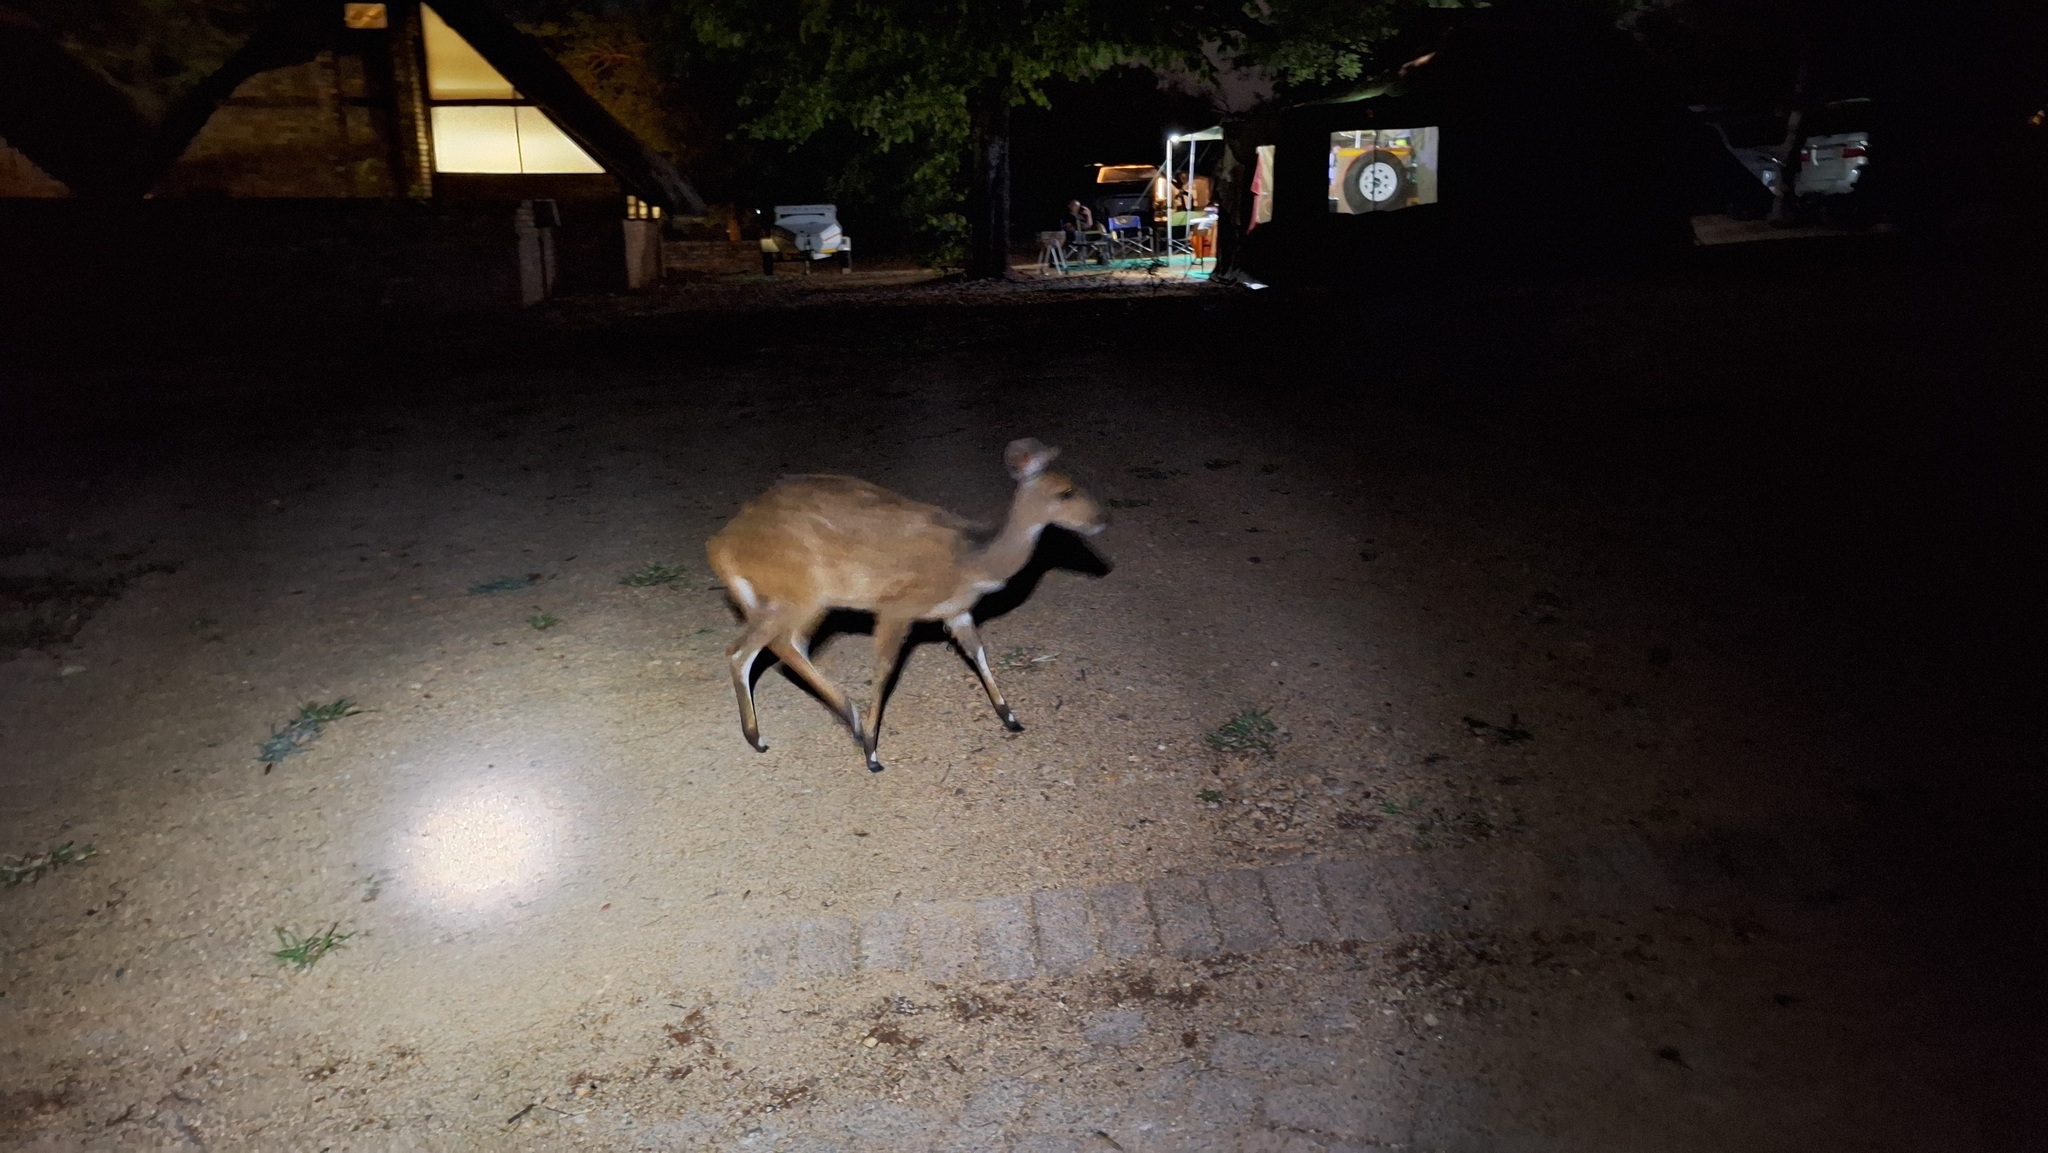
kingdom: Animalia
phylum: Chordata
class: Mammalia
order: Artiodactyla
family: Bovidae
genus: Tragelaphus
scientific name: Tragelaphus scriptus
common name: Bushbuck
